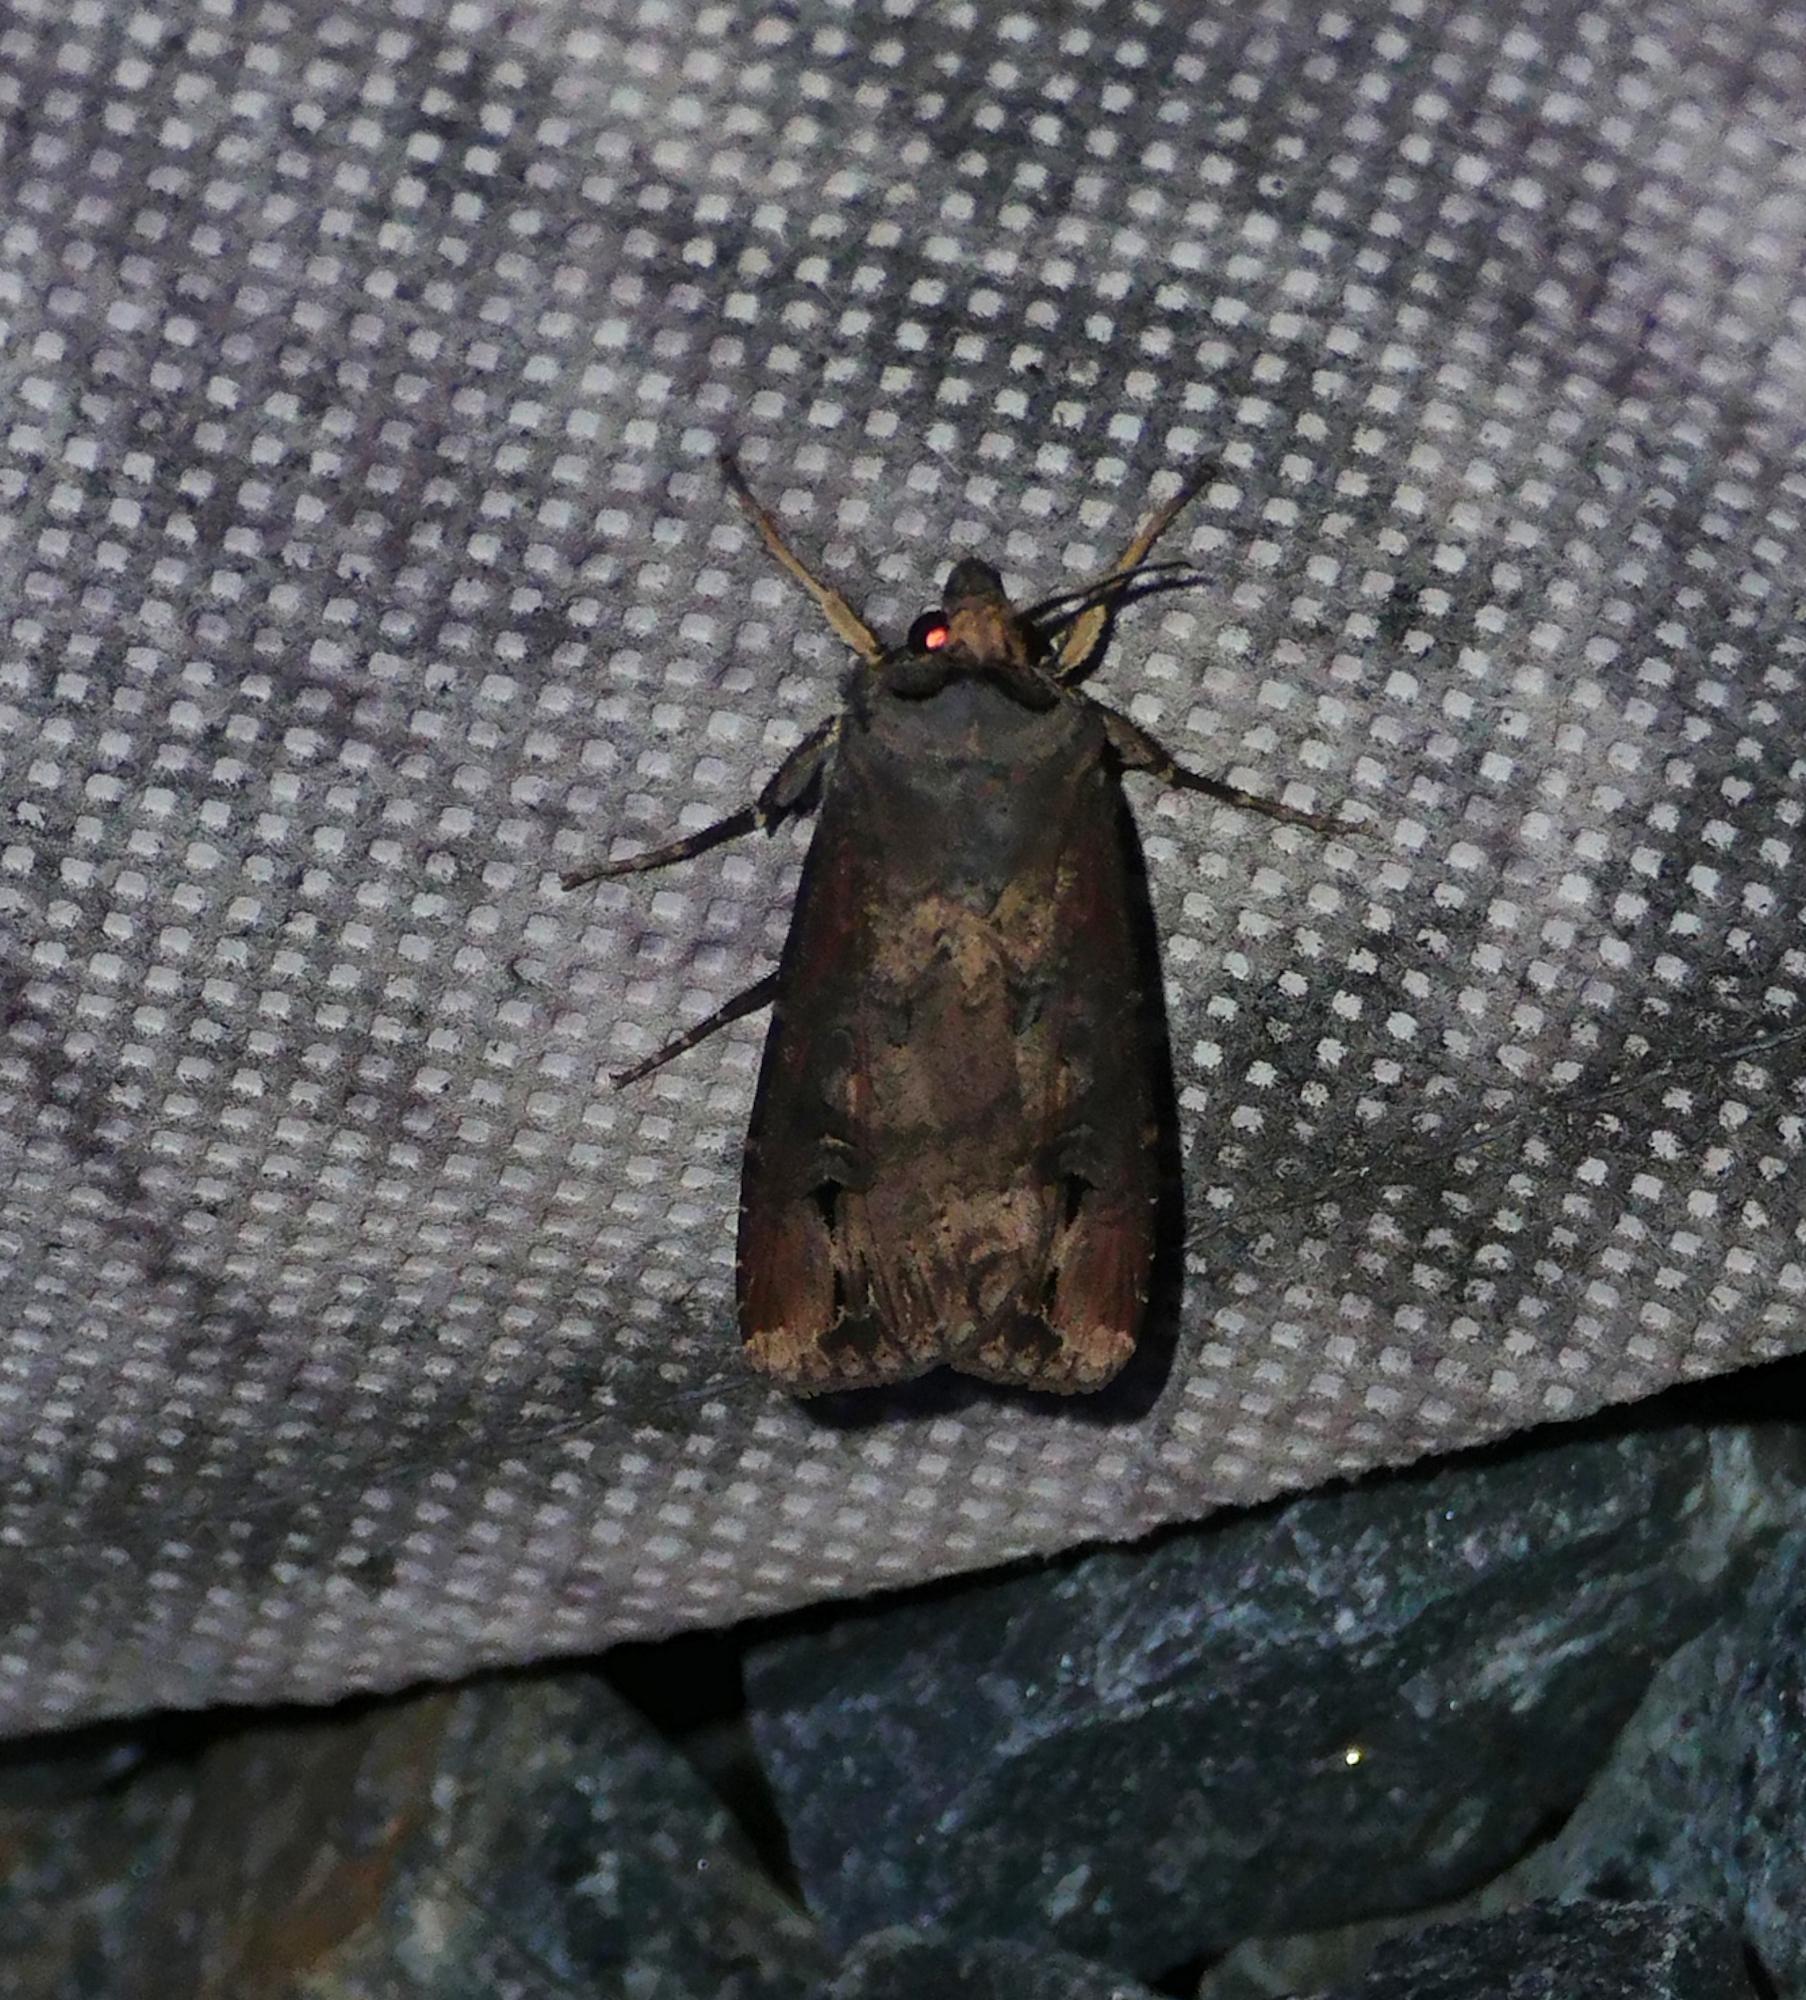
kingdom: Animalia
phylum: Arthropoda
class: Insecta
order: Lepidoptera
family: Noctuidae
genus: Agrotis
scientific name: Agrotis ipsilon
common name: Dark sword-grass
